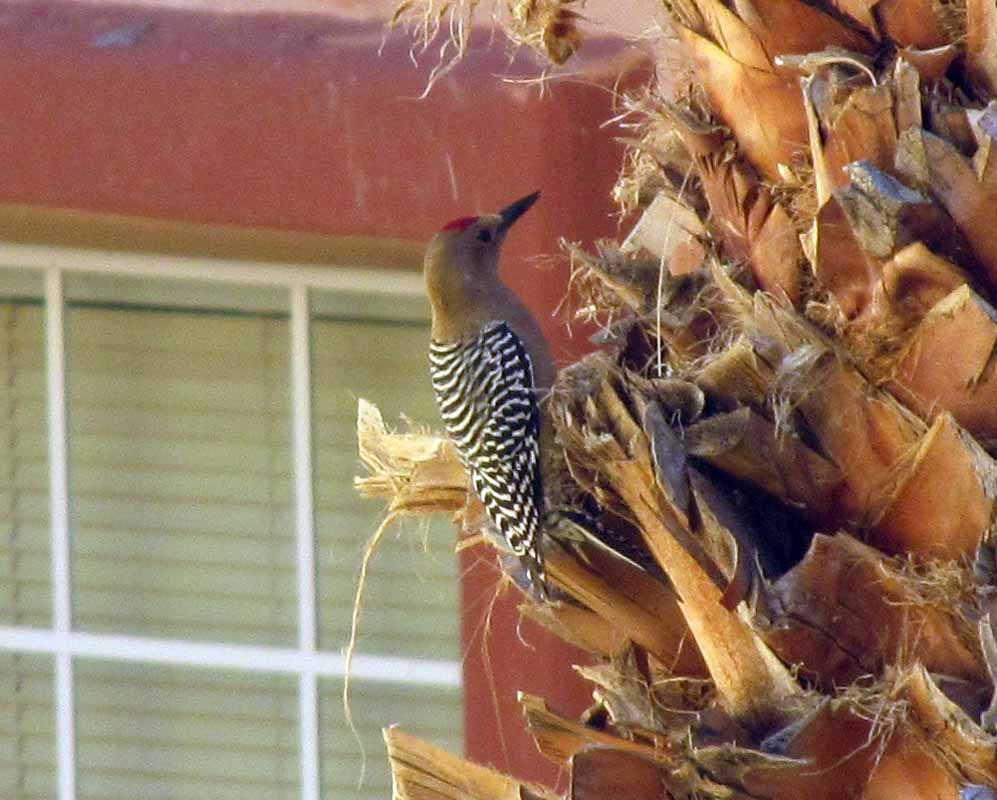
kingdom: Animalia
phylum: Chordata
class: Aves
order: Piciformes
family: Picidae
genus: Melanerpes
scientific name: Melanerpes uropygialis
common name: Gila woodpecker
